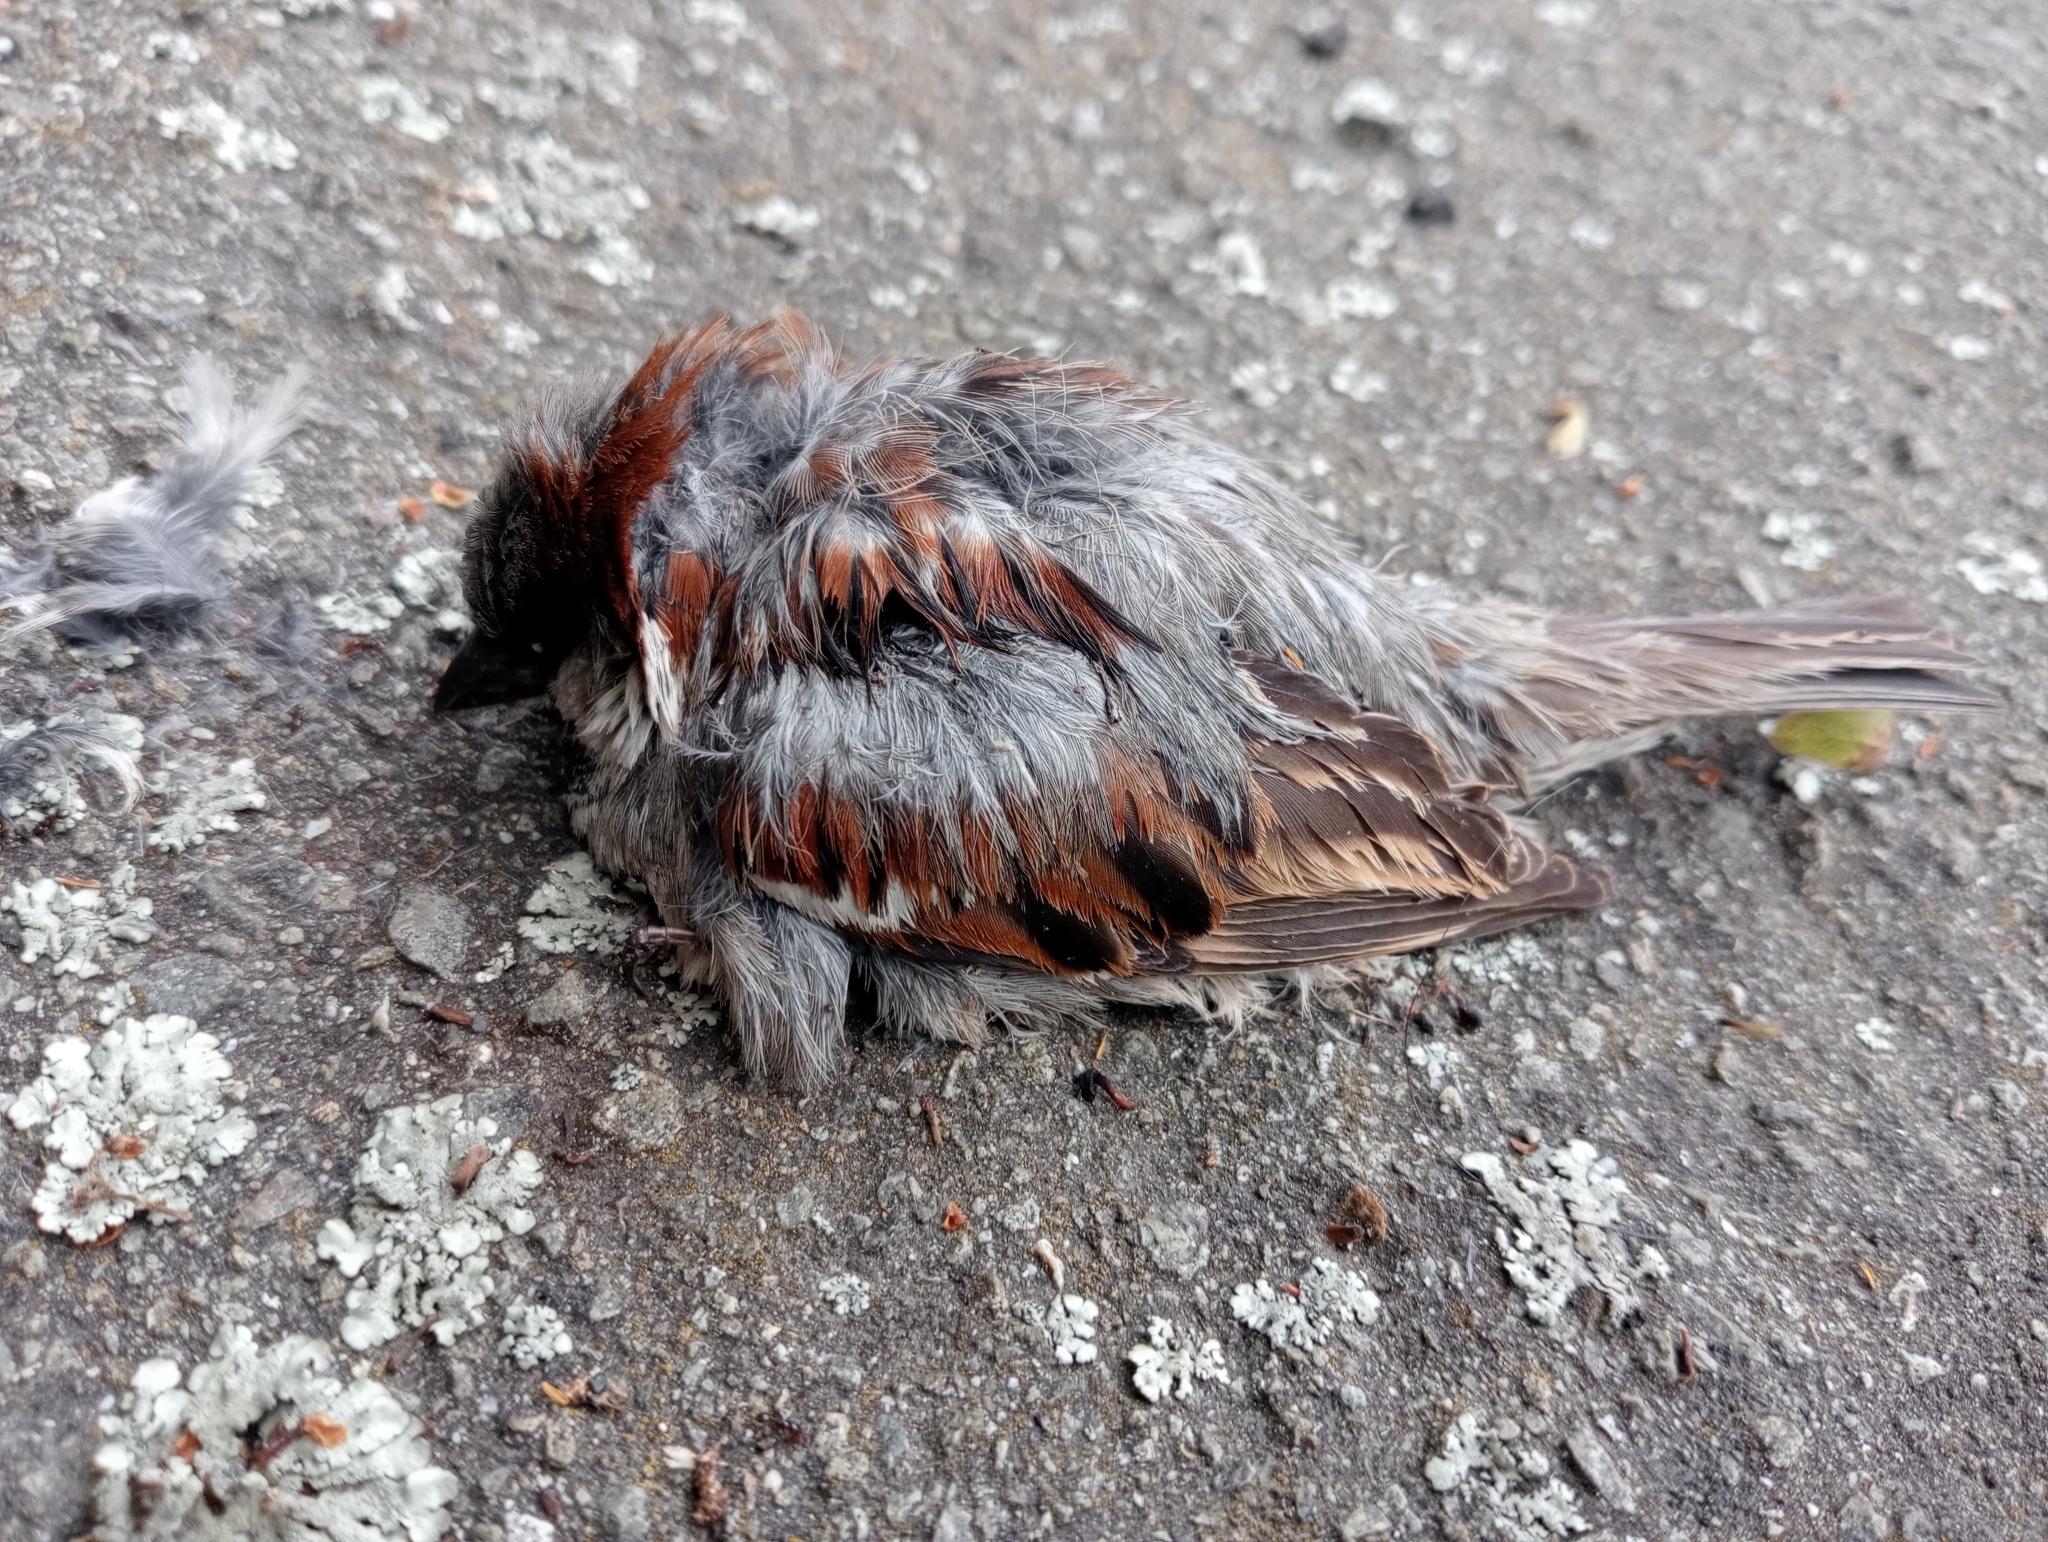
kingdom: Animalia
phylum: Chordata
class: Aves
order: Passeriformes
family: Passeridae
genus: Passer
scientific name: Passer domesticus
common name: House sparrow
